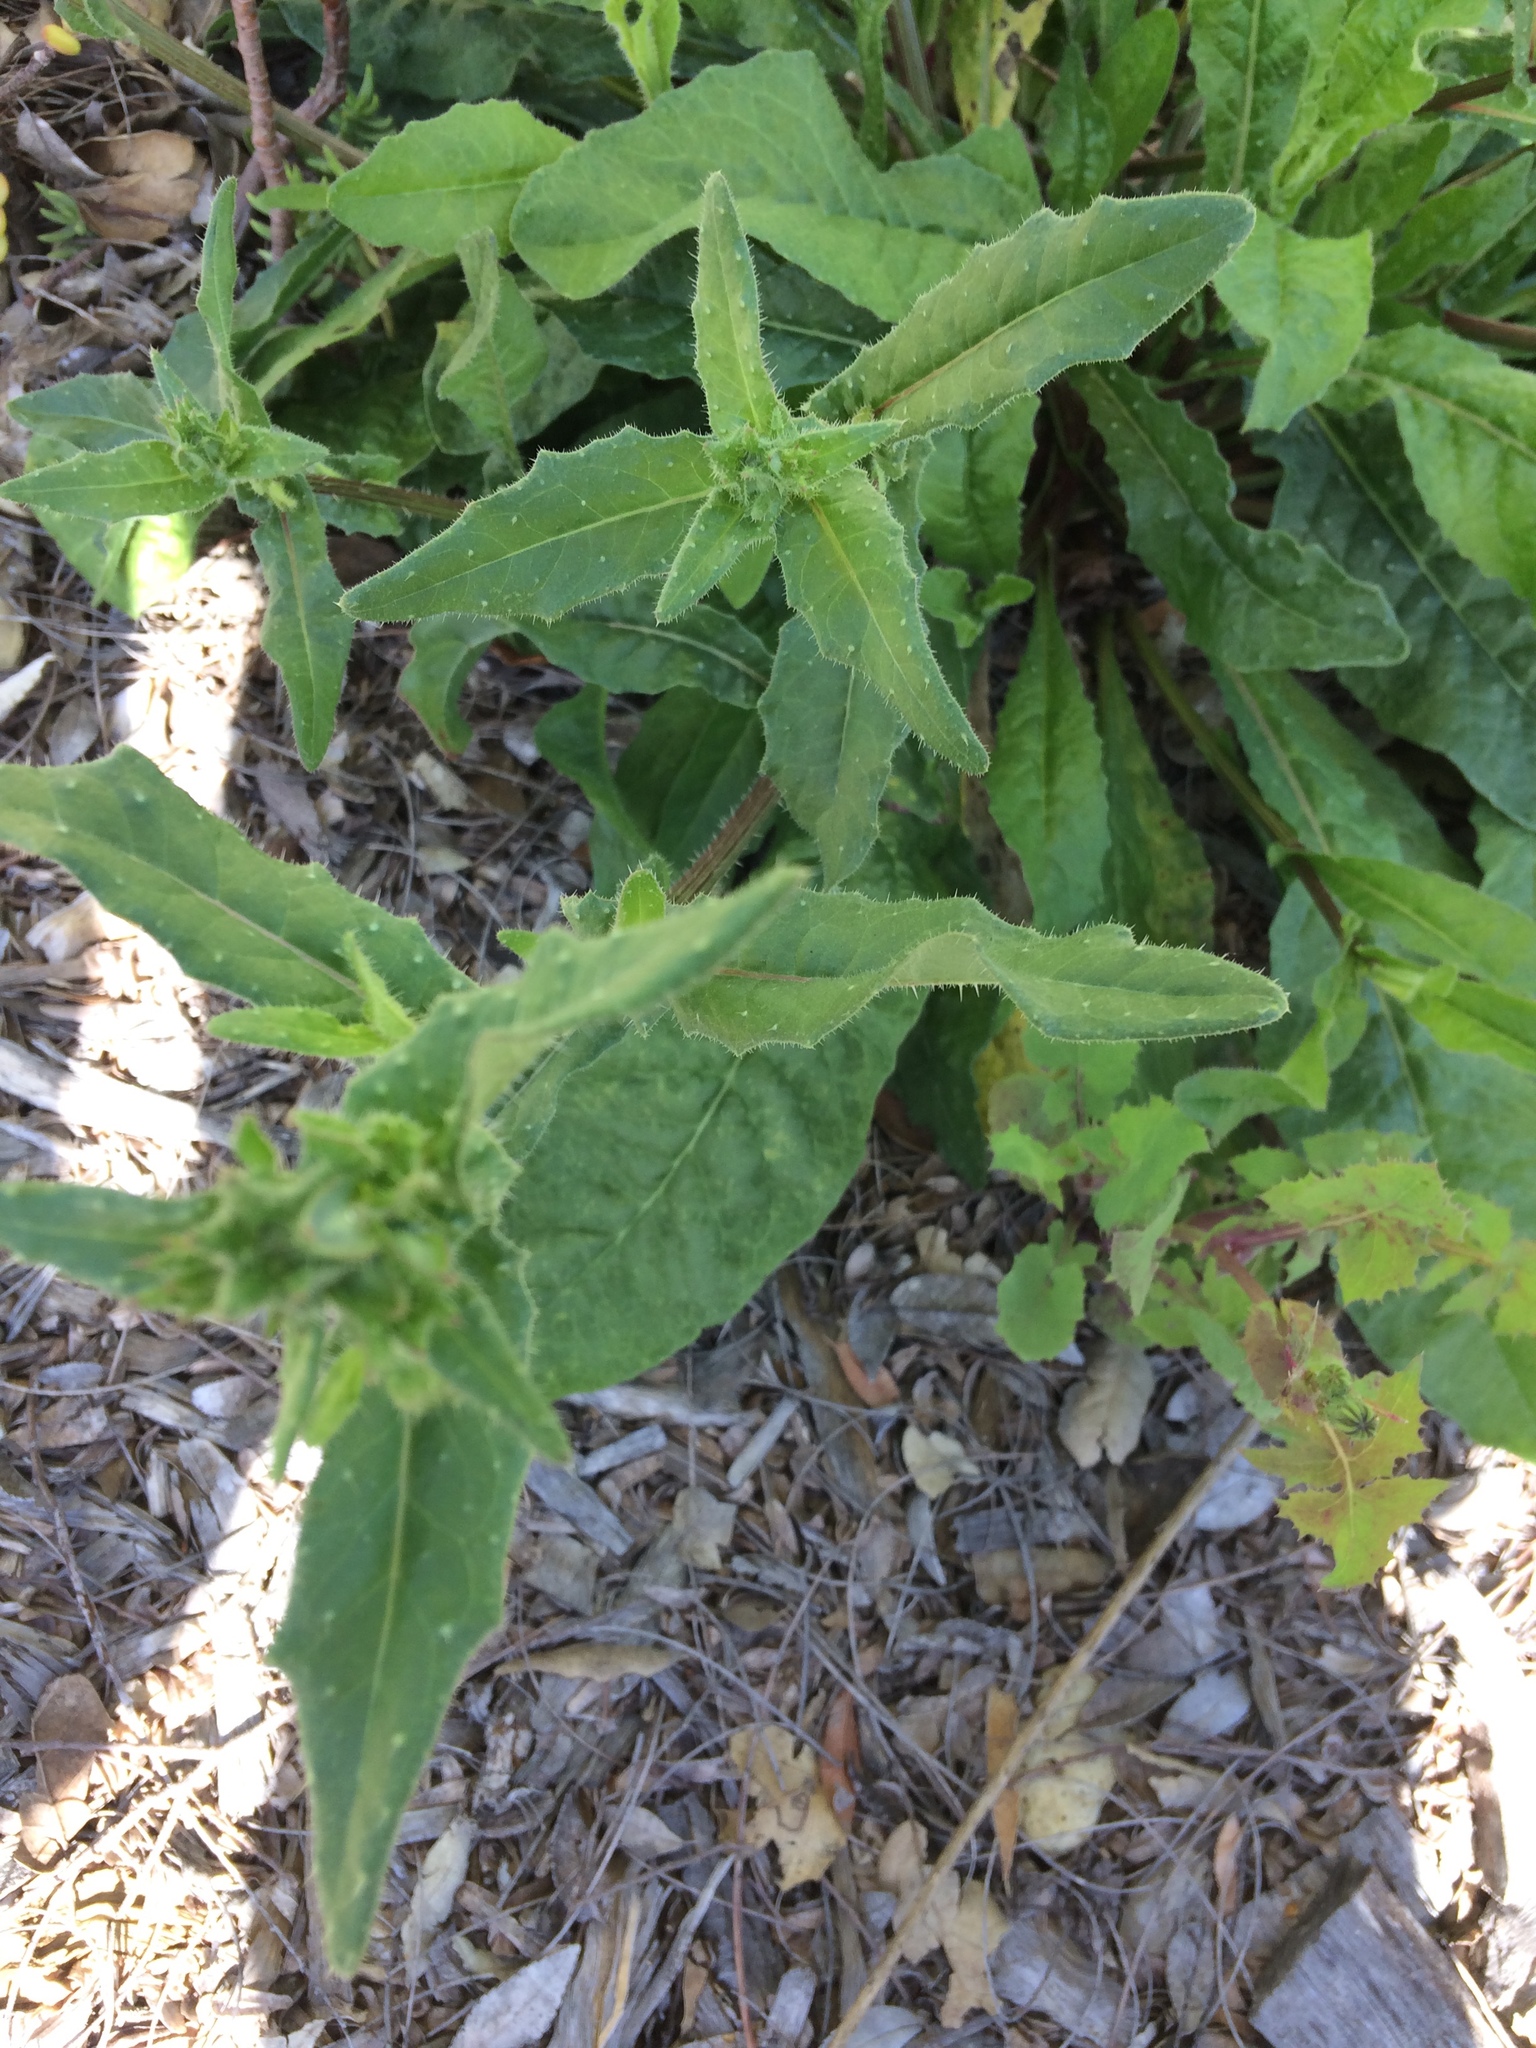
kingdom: Plantae
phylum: Tracheophyta
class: Magnoliopsida
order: Asterales
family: Asteraceae
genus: Helminthotheca
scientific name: Helminthotheca echioides
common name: Ox-tongue
